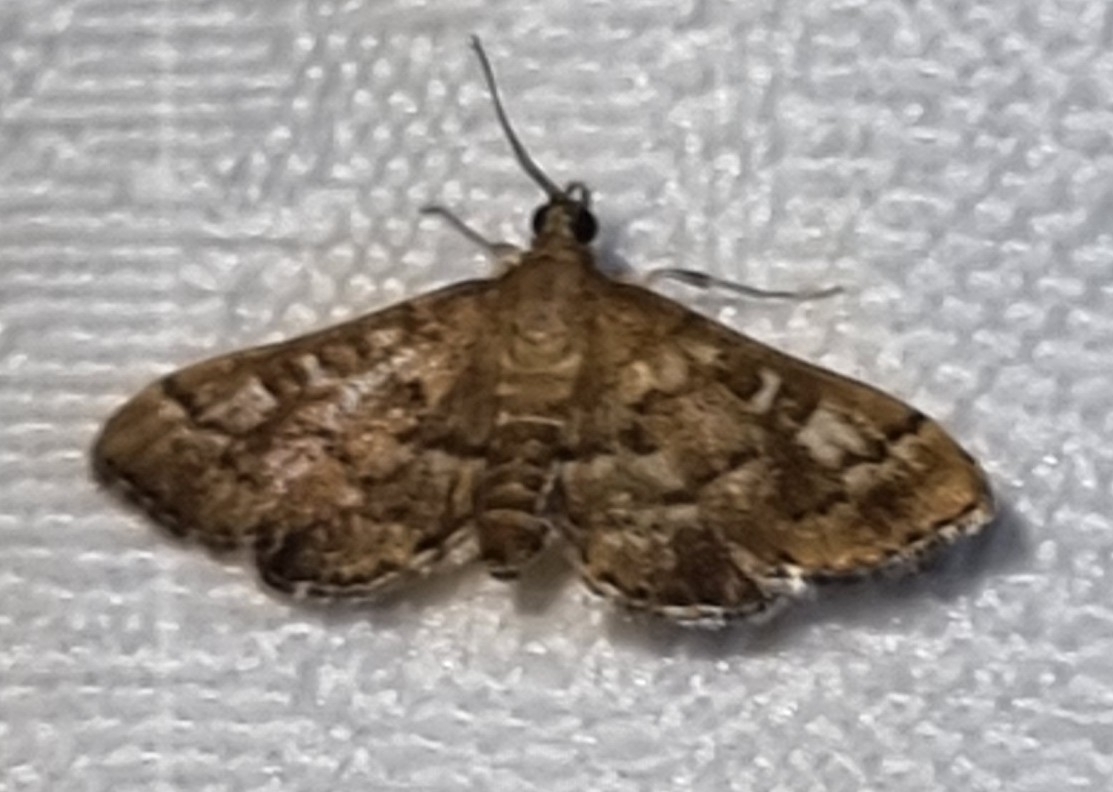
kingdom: Animalia
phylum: Arthropoda
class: Insecta
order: Lepidoptera
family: Crambidae
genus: Nacoleia
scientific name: Nacoleia rhoeoalis
